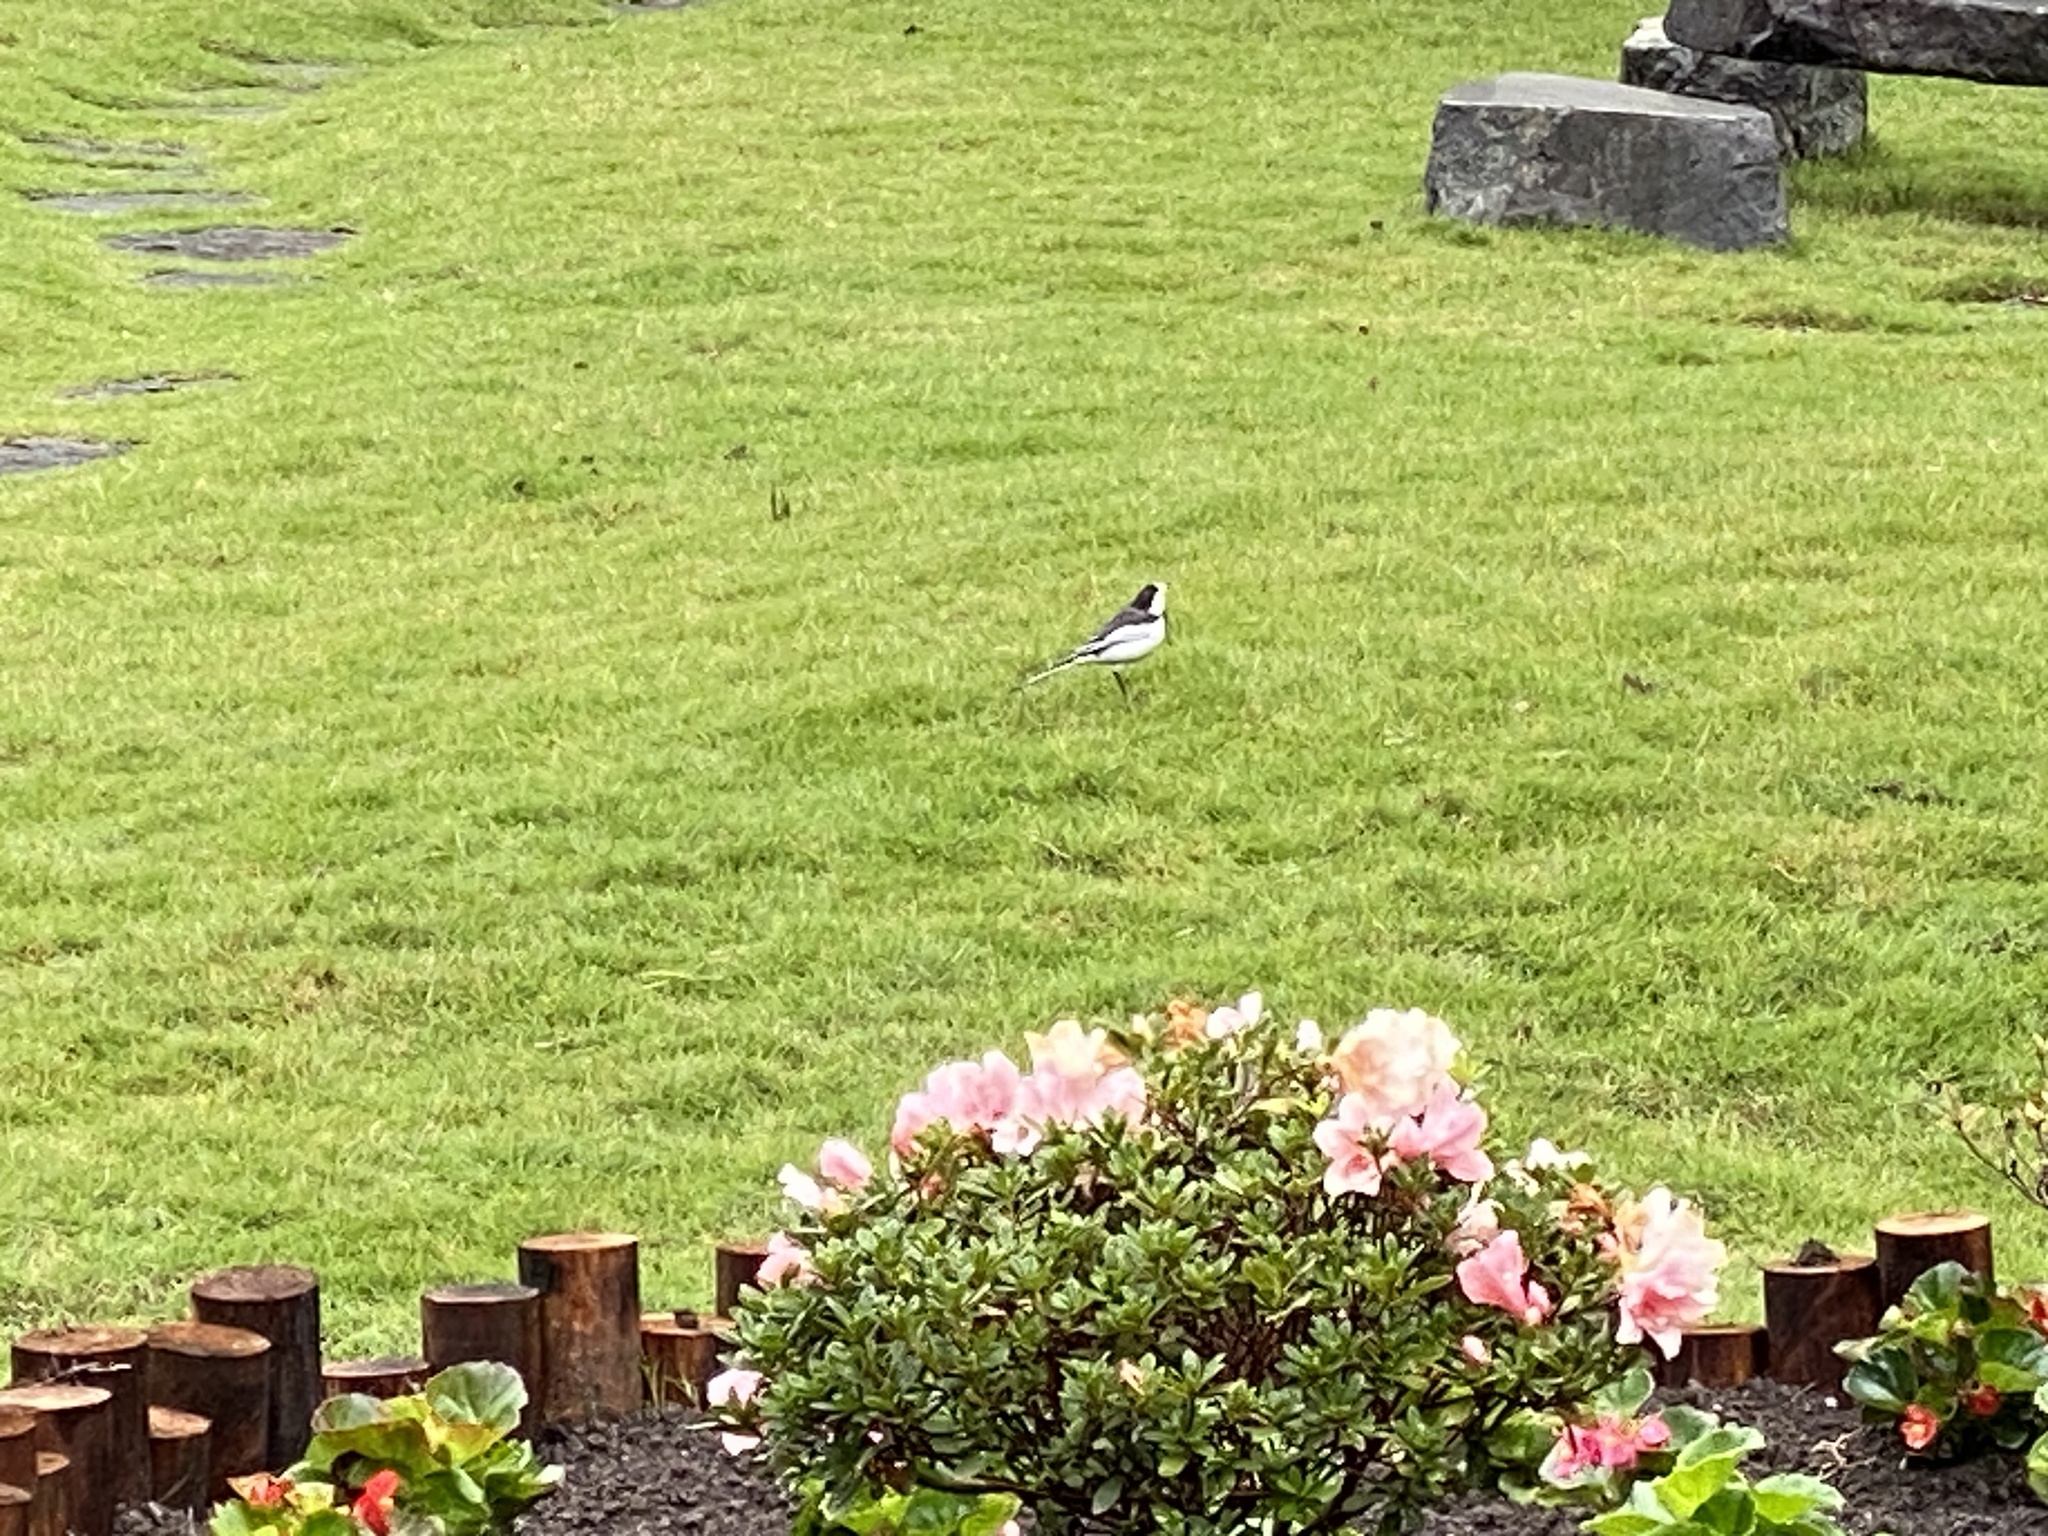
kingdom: Animalia
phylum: Chordata
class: Aves
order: Passeriformes
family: Motacillidae
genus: Motacilla
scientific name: Motacilla alba
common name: White wagtail
